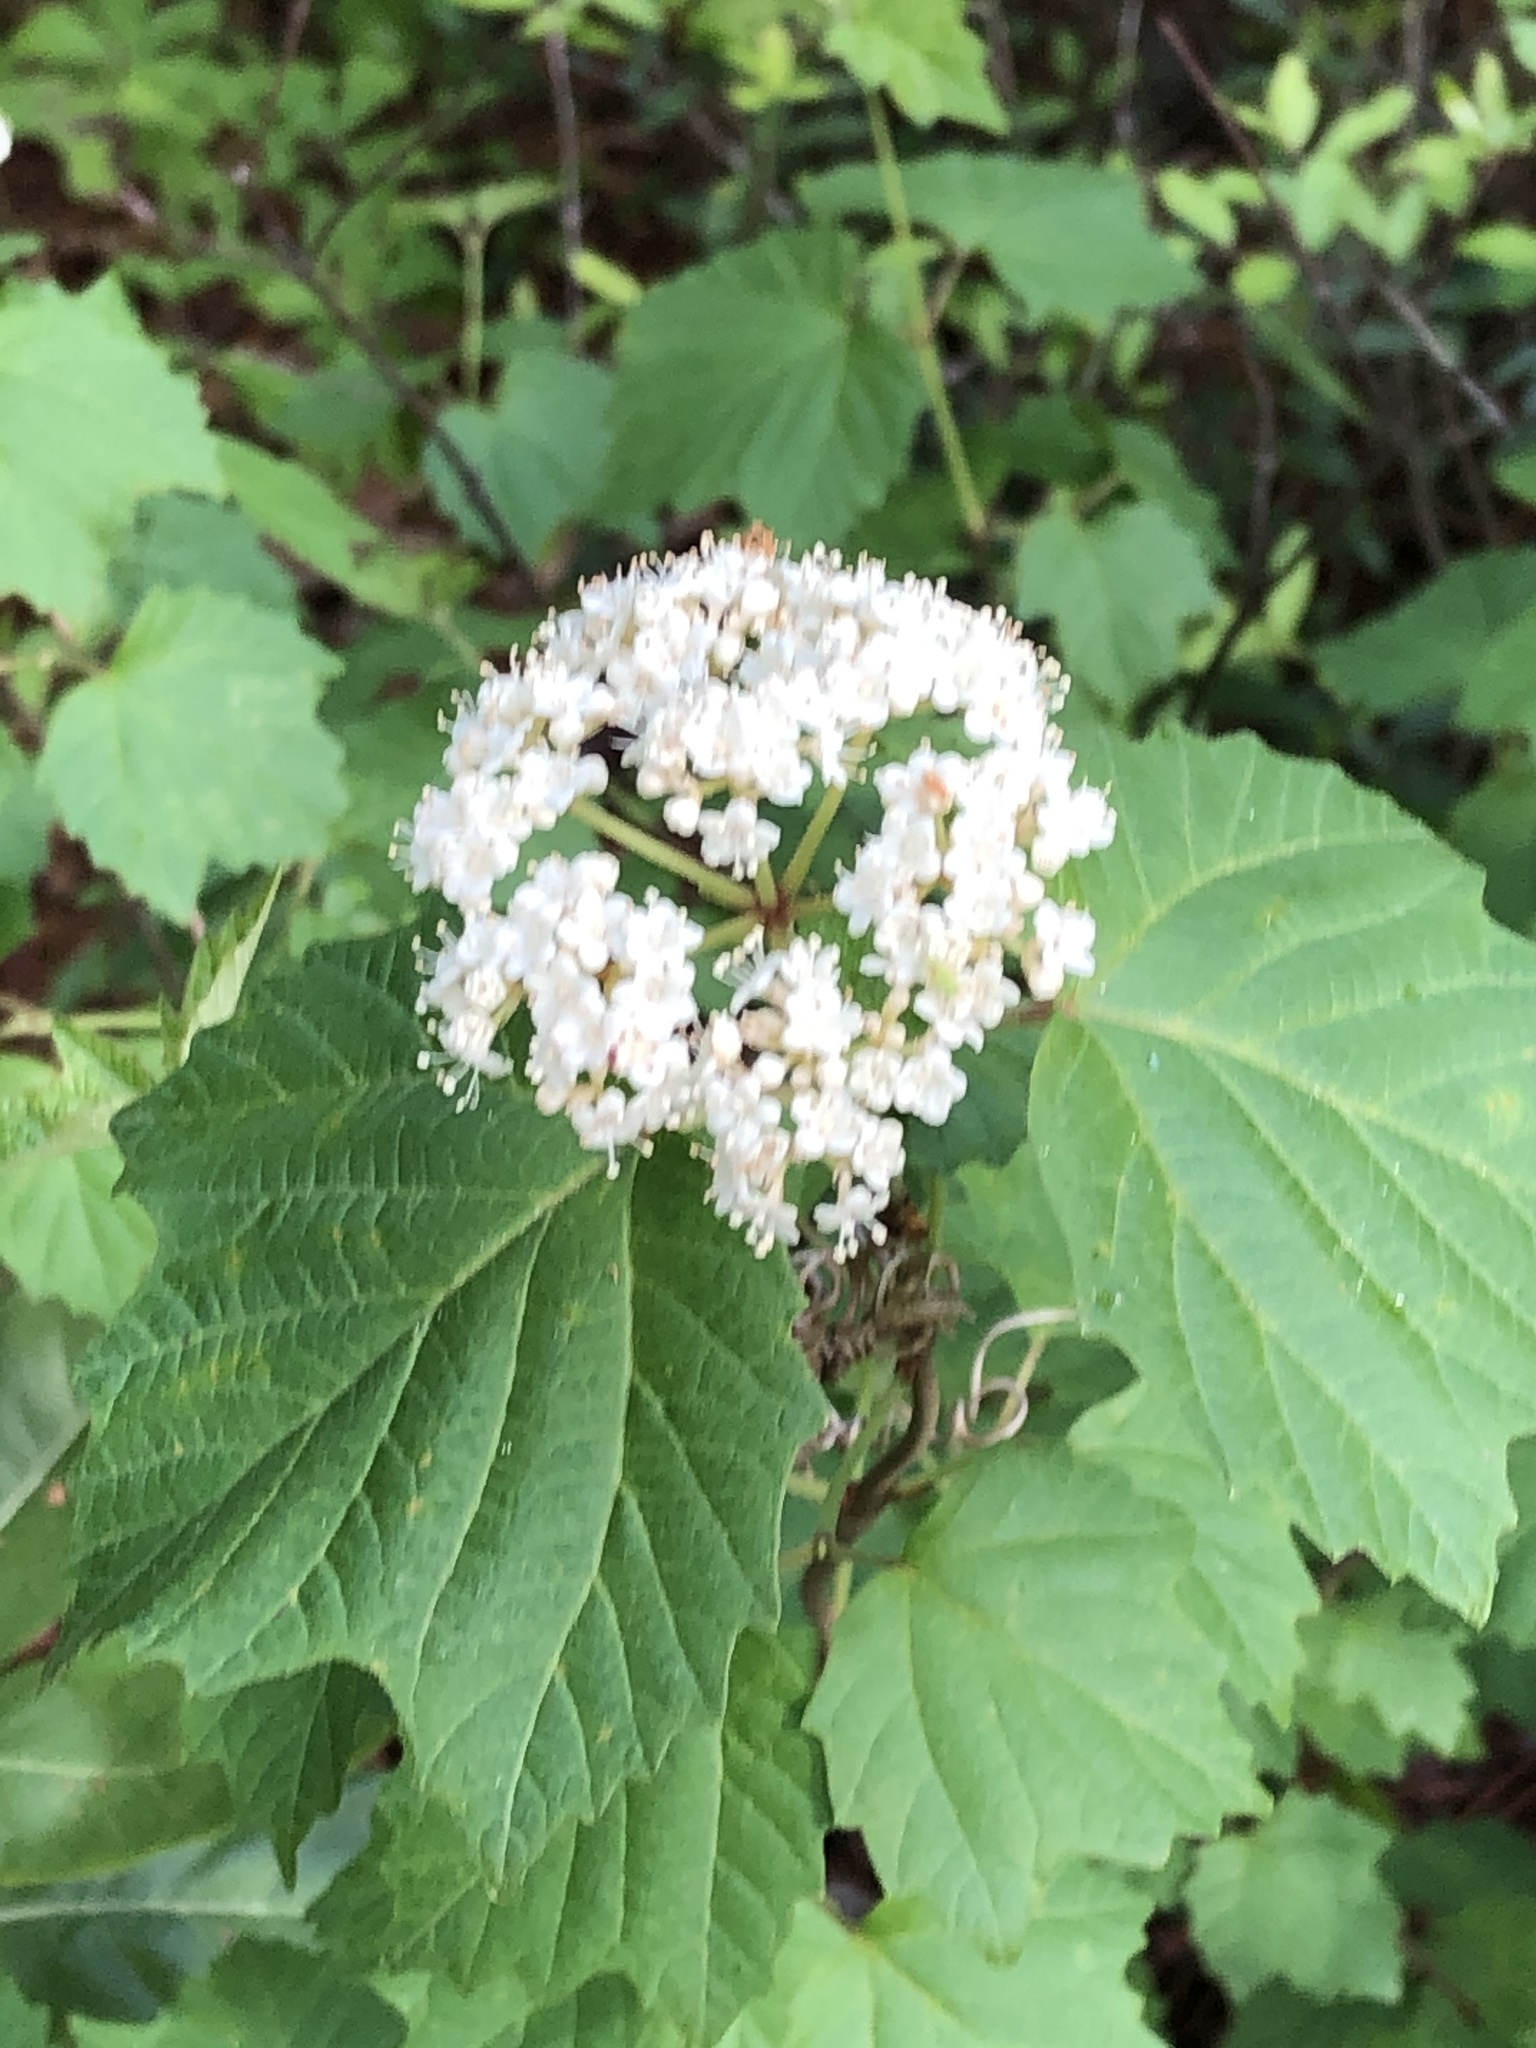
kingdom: Plantae
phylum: Tracheophyta
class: Magnoliopsida
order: Dipsacales
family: Viburnaceae
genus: Viburnum
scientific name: Viburnum acerifolium
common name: Dockmackie
